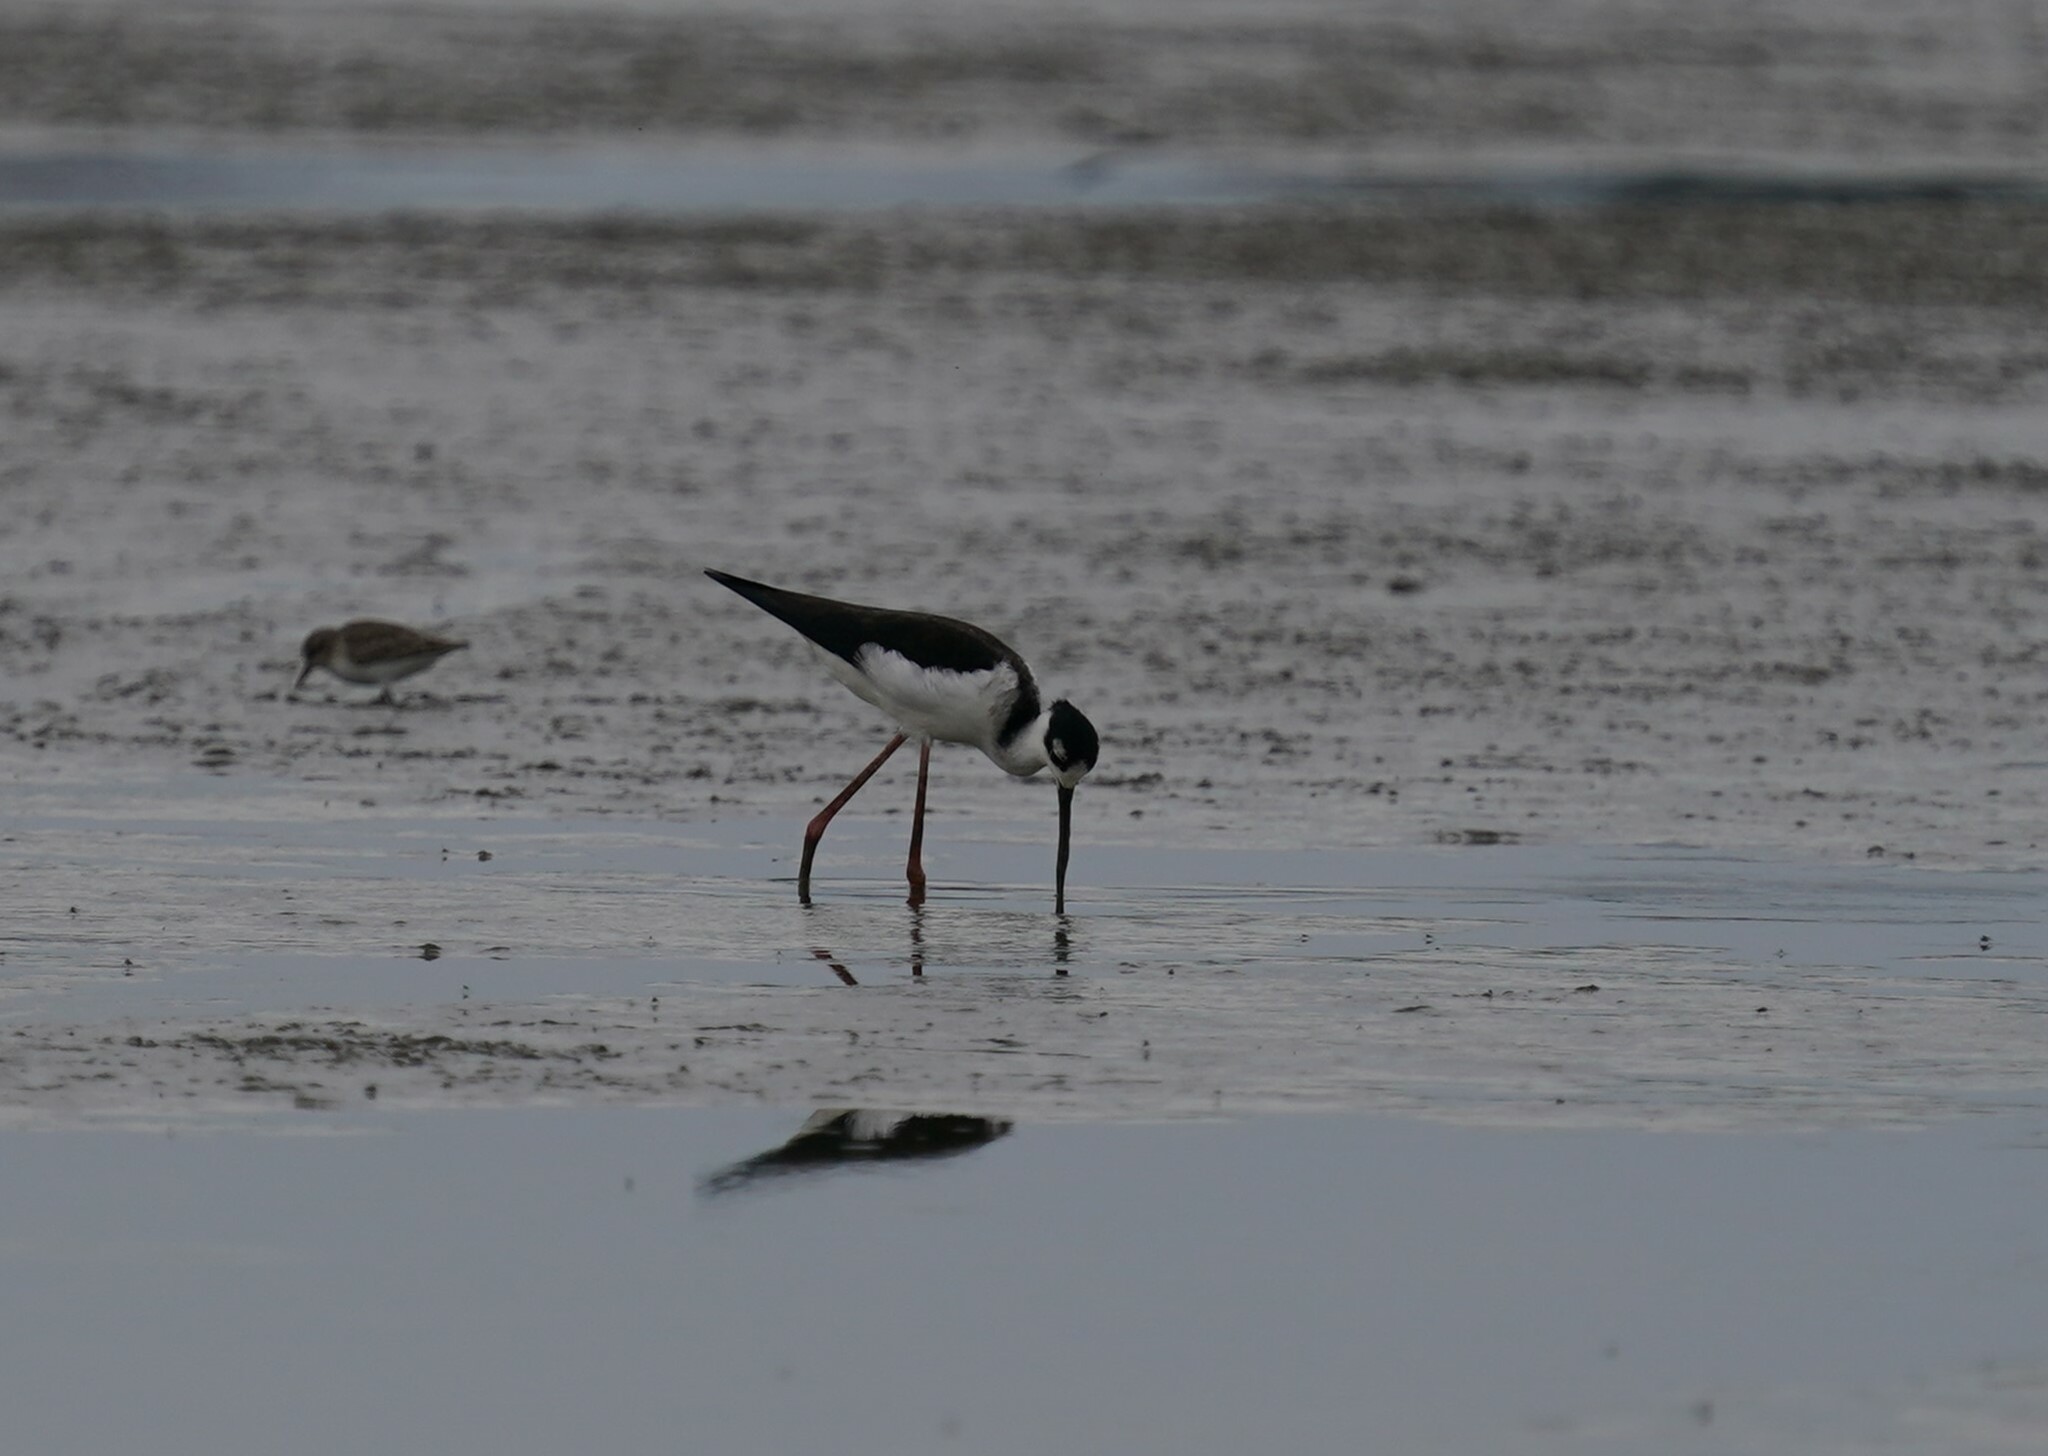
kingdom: Animalia
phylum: Chordata
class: Aves
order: Charadriiformes
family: Recurvirostridae
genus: Himantopus
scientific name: Himantopus mexicanus
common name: Black-necked stilt
